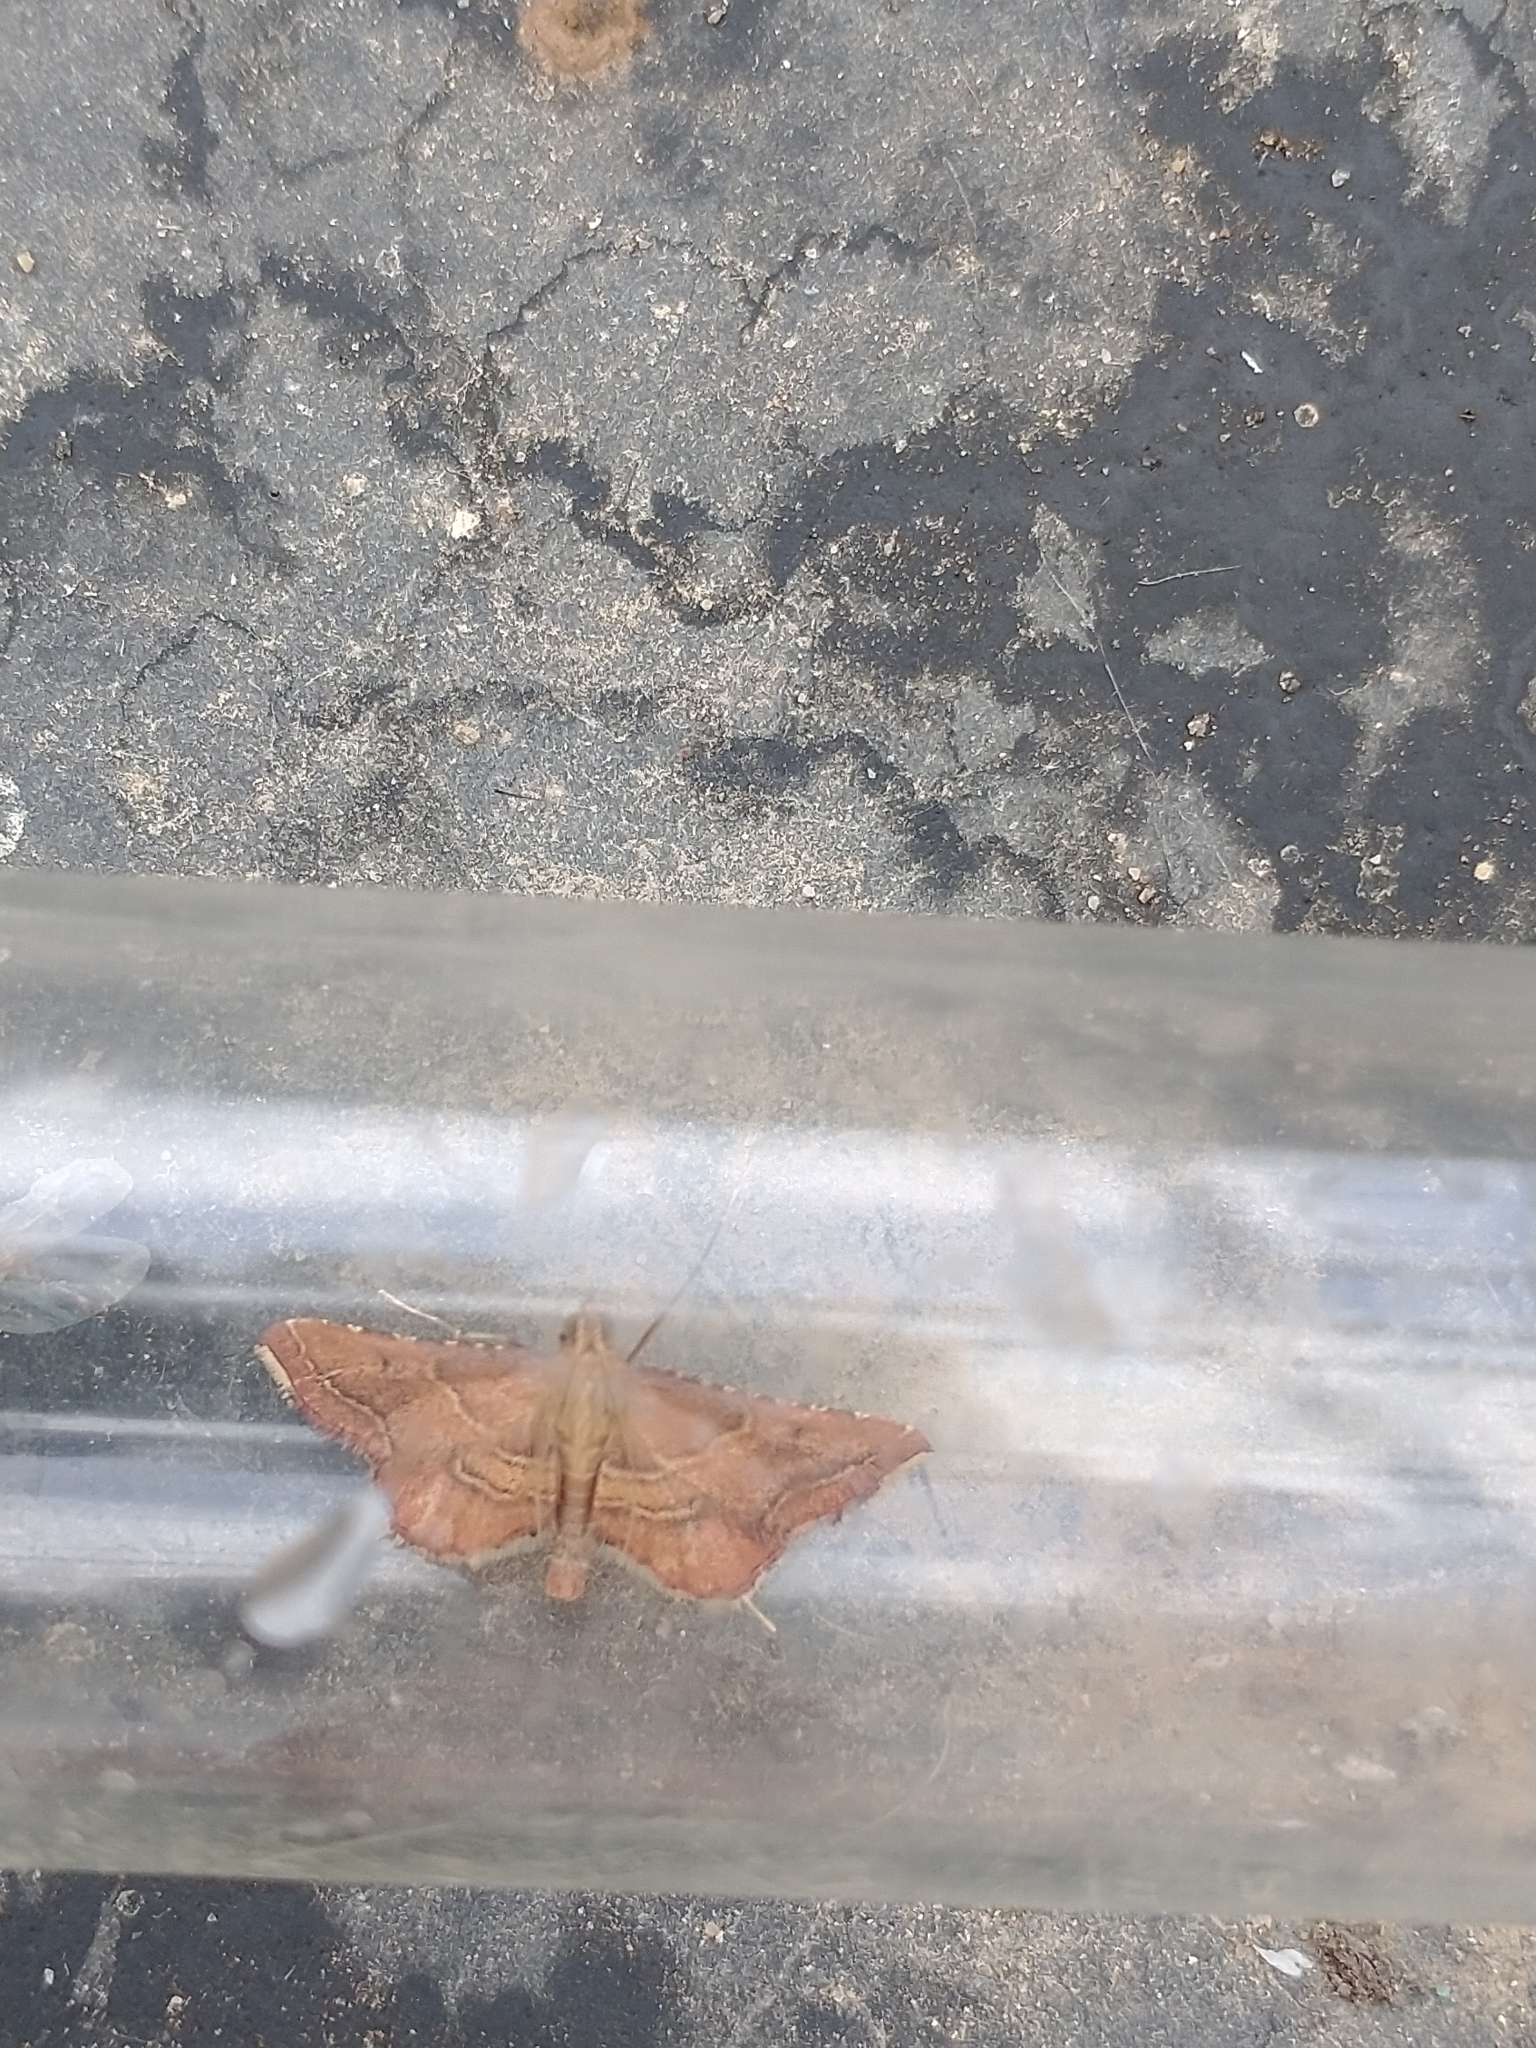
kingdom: Animalia
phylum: Arthropoda
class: Insecta
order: Lepidoptera
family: Pyralidae
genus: Endotricha
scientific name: Endotricha flammealis
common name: Rosy tabby
